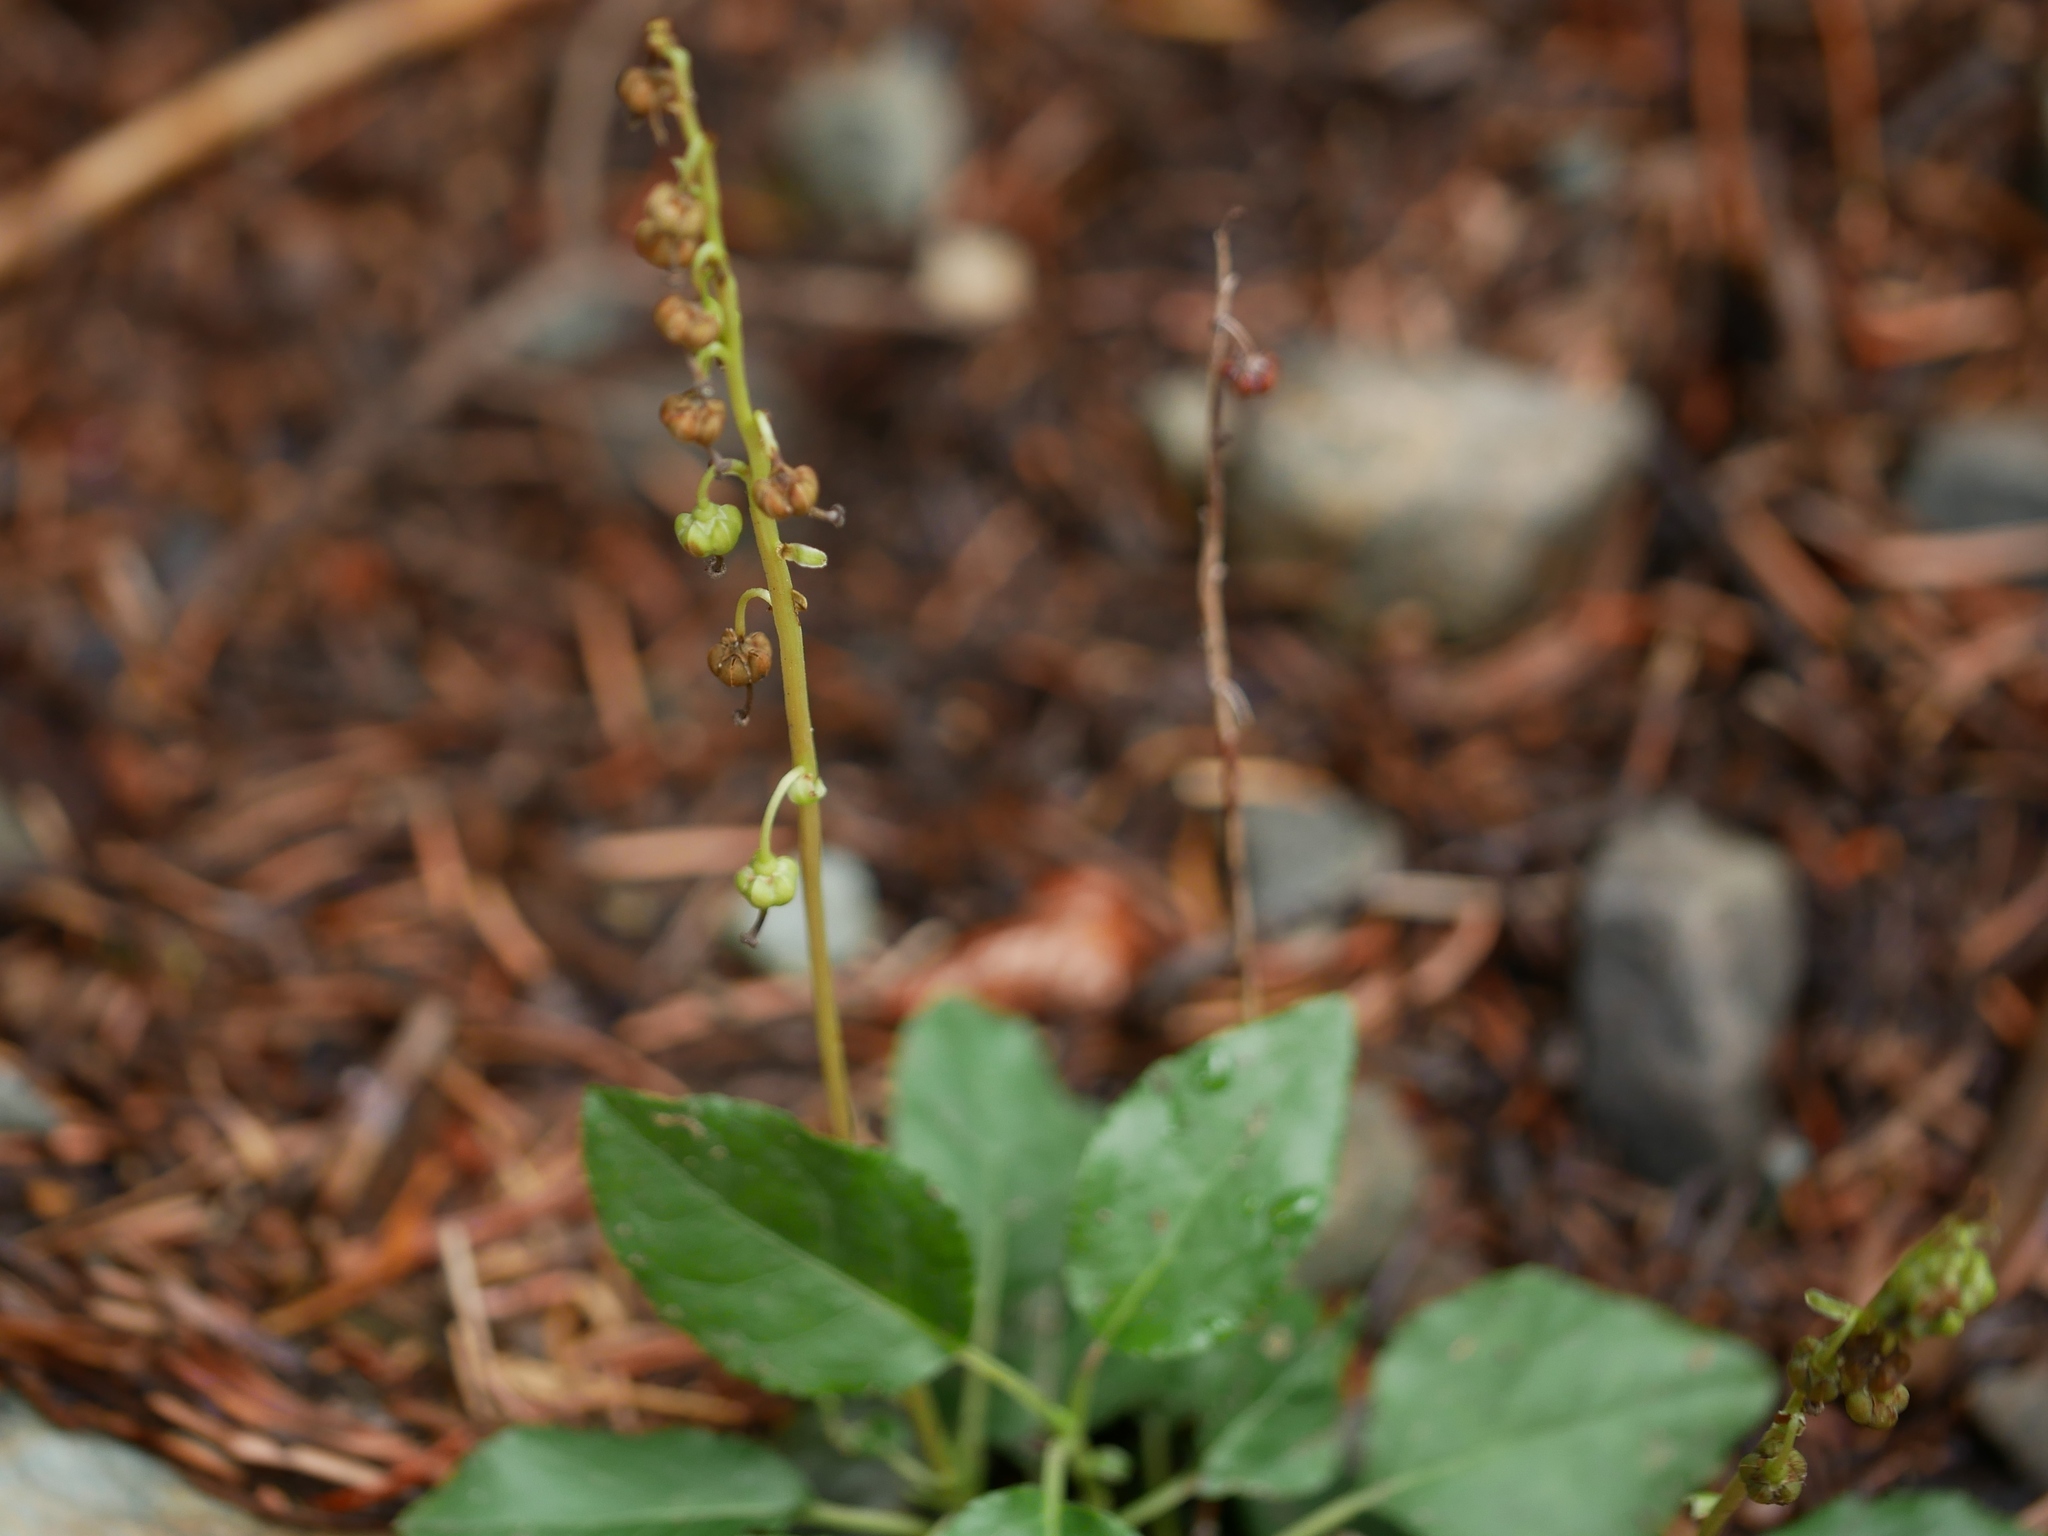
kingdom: Plantae
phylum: Tracheophyta
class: Magnoliopsida
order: Ericales
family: Ericaceae
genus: Orthilia
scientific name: Orthilia secunda
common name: One-sided orthilia
